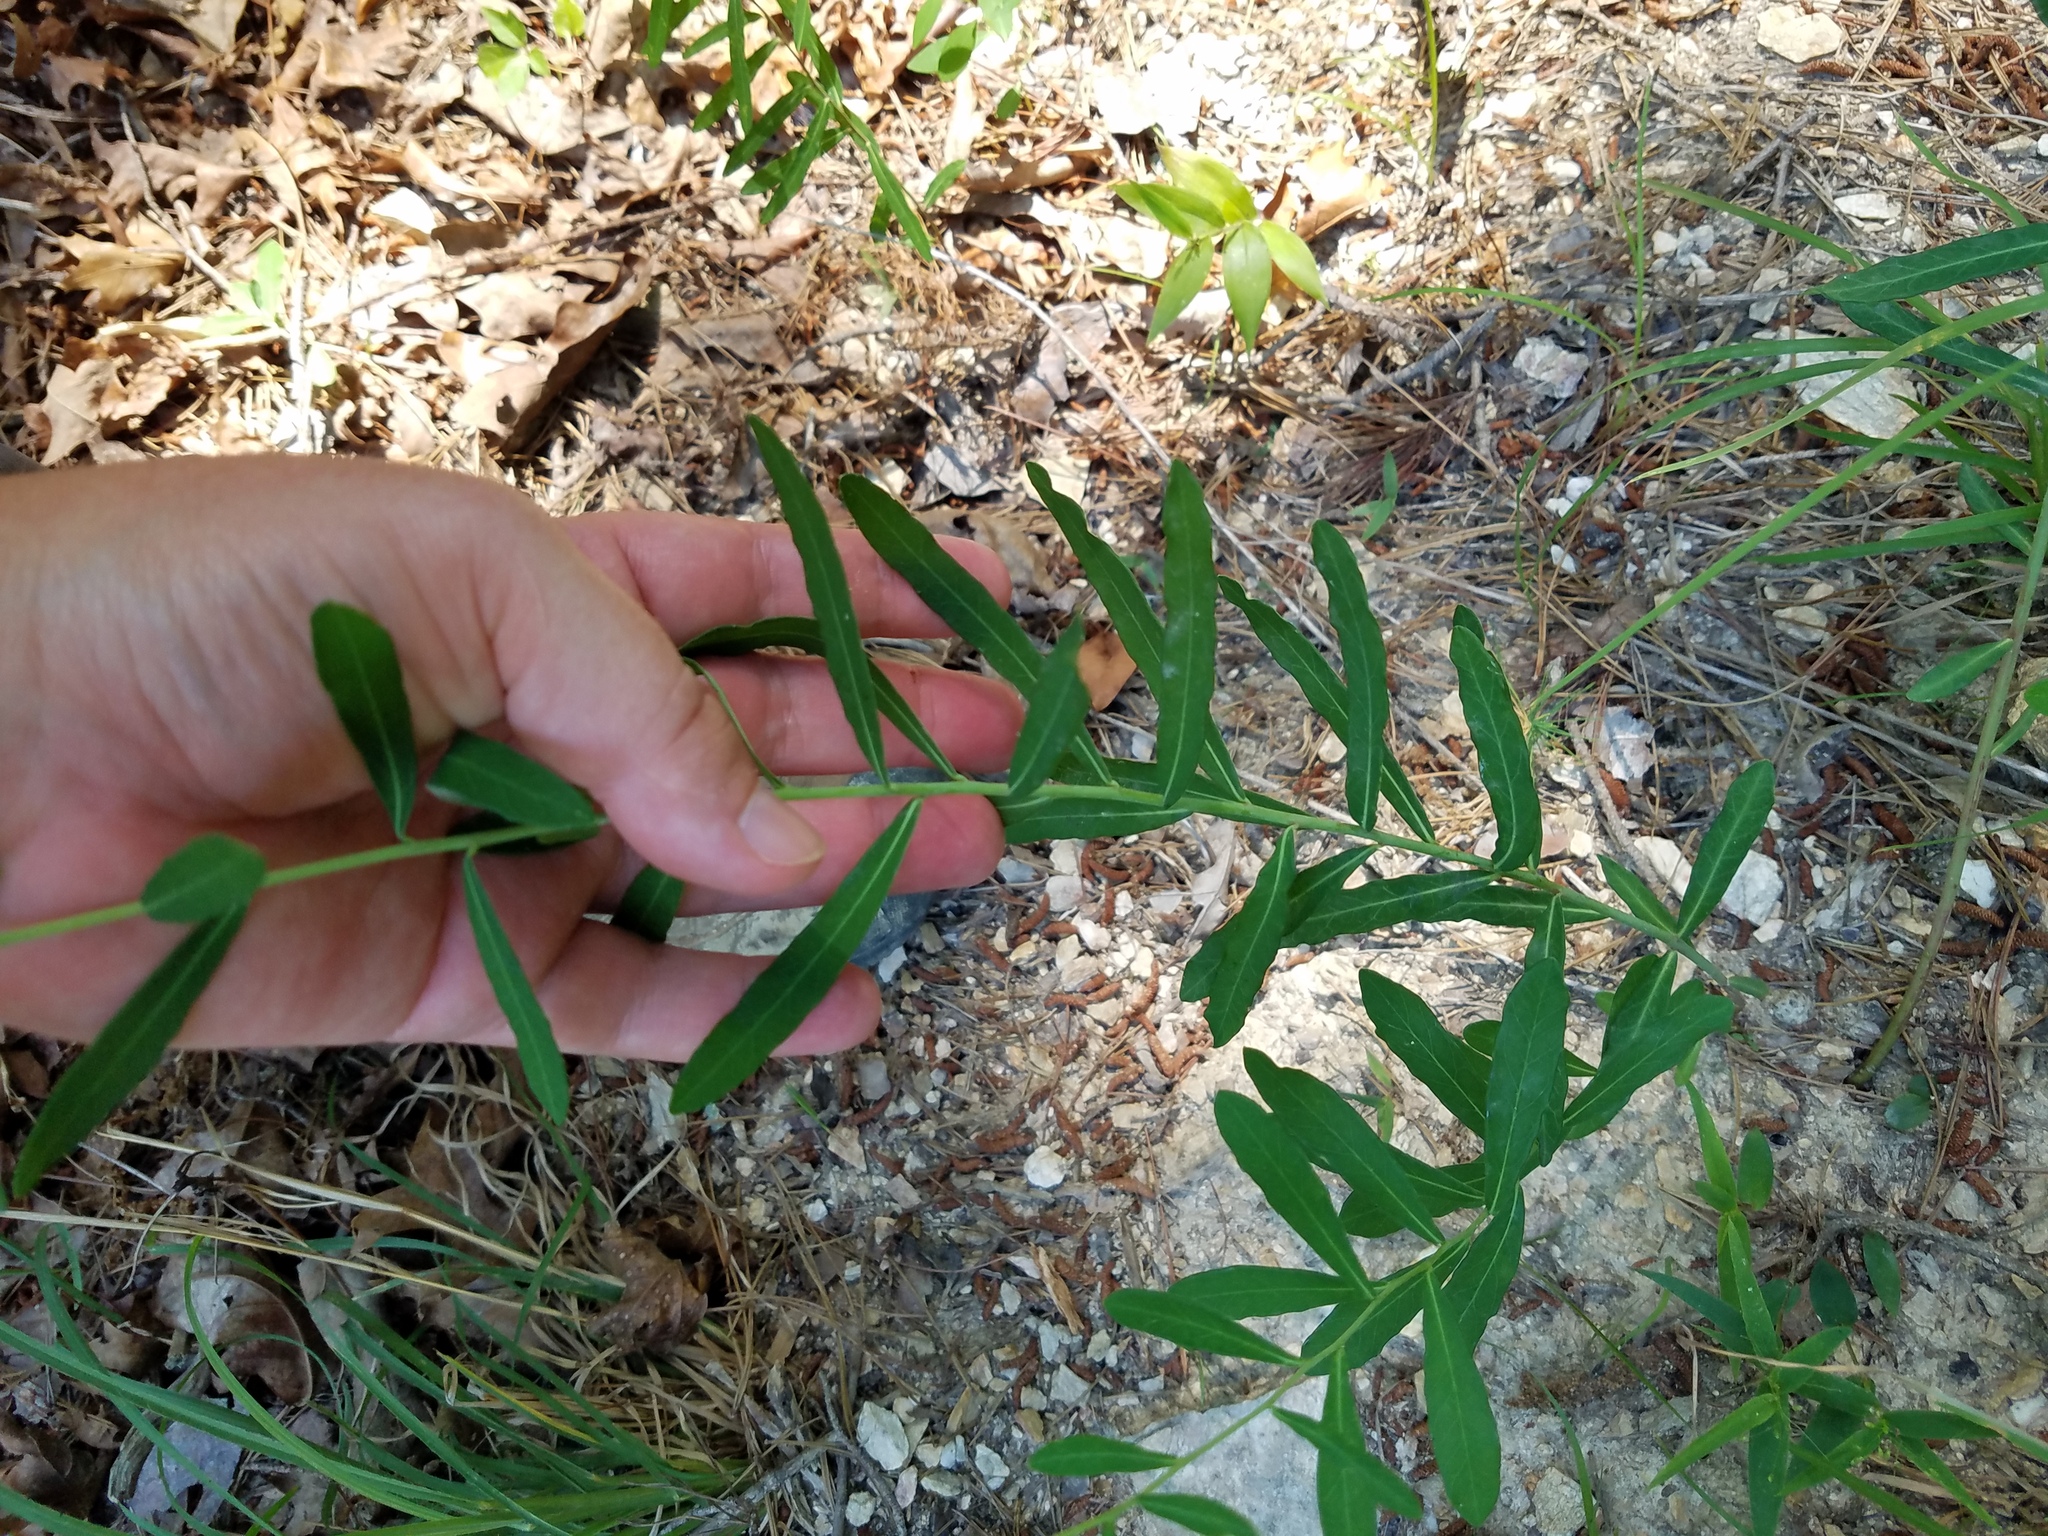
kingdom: Plantae
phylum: Tracheophyta
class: Magnoliopsida
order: Malpighiales
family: Euphorbiaceae
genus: Euphorbia
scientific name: Euphorbia pubentissima
